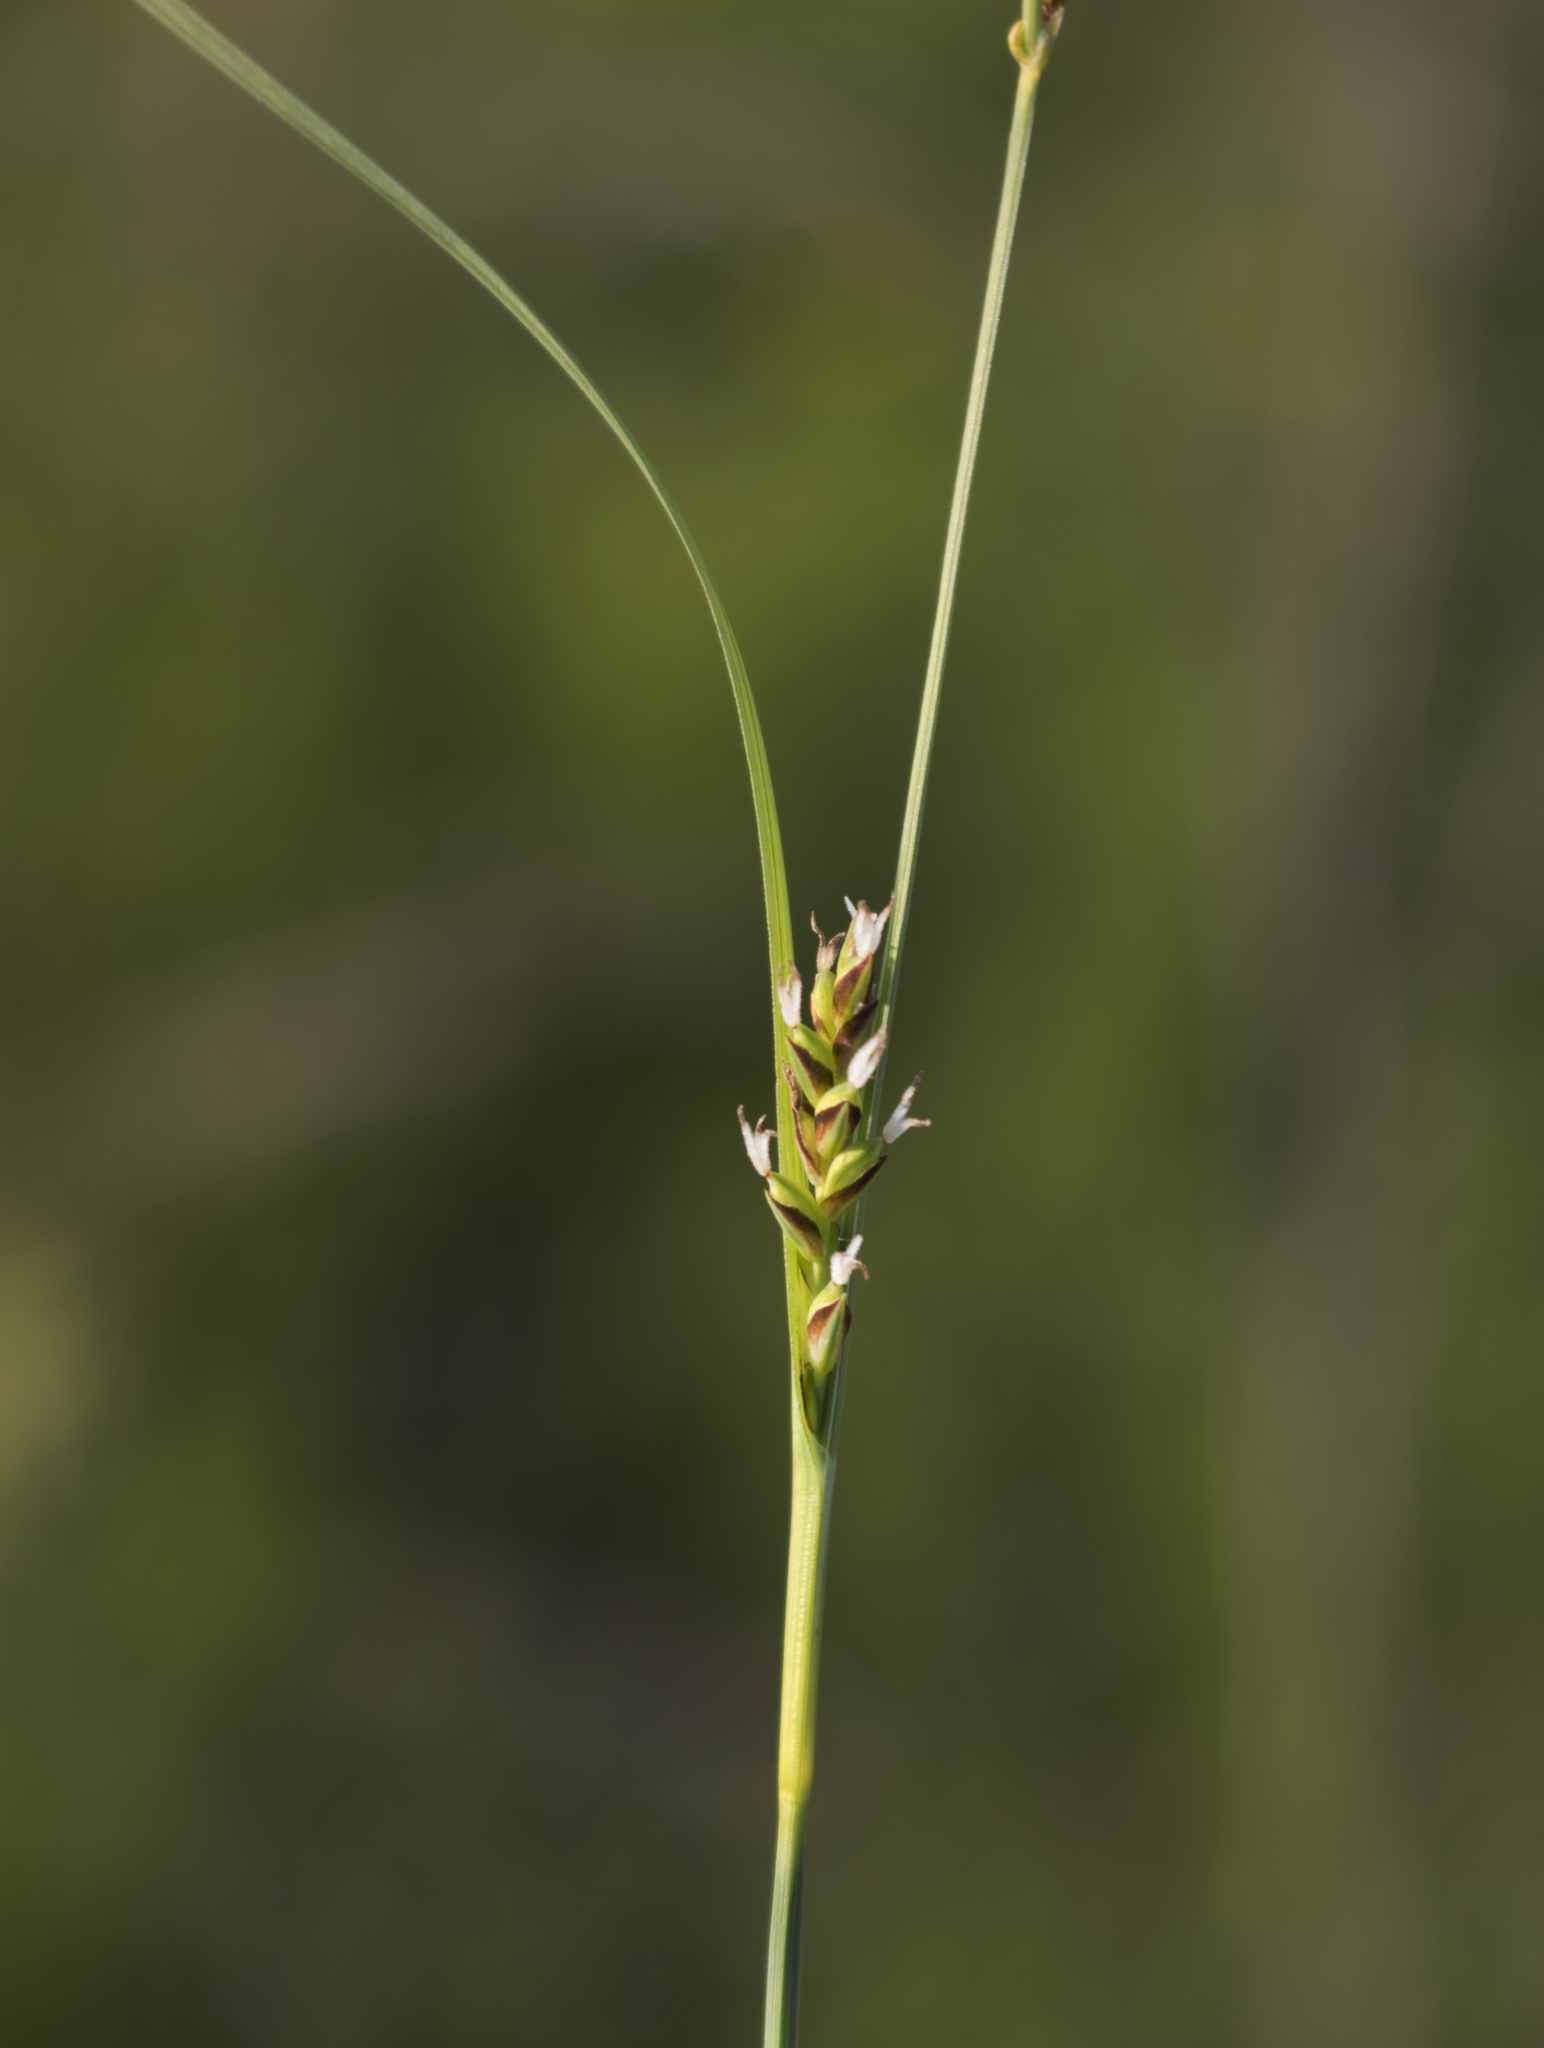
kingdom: Plantae
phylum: Tracheophyta
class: Liliopsida
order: Poales
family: Cyperaceae
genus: Carex
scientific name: Carex tetanica
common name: Rigid sedge
